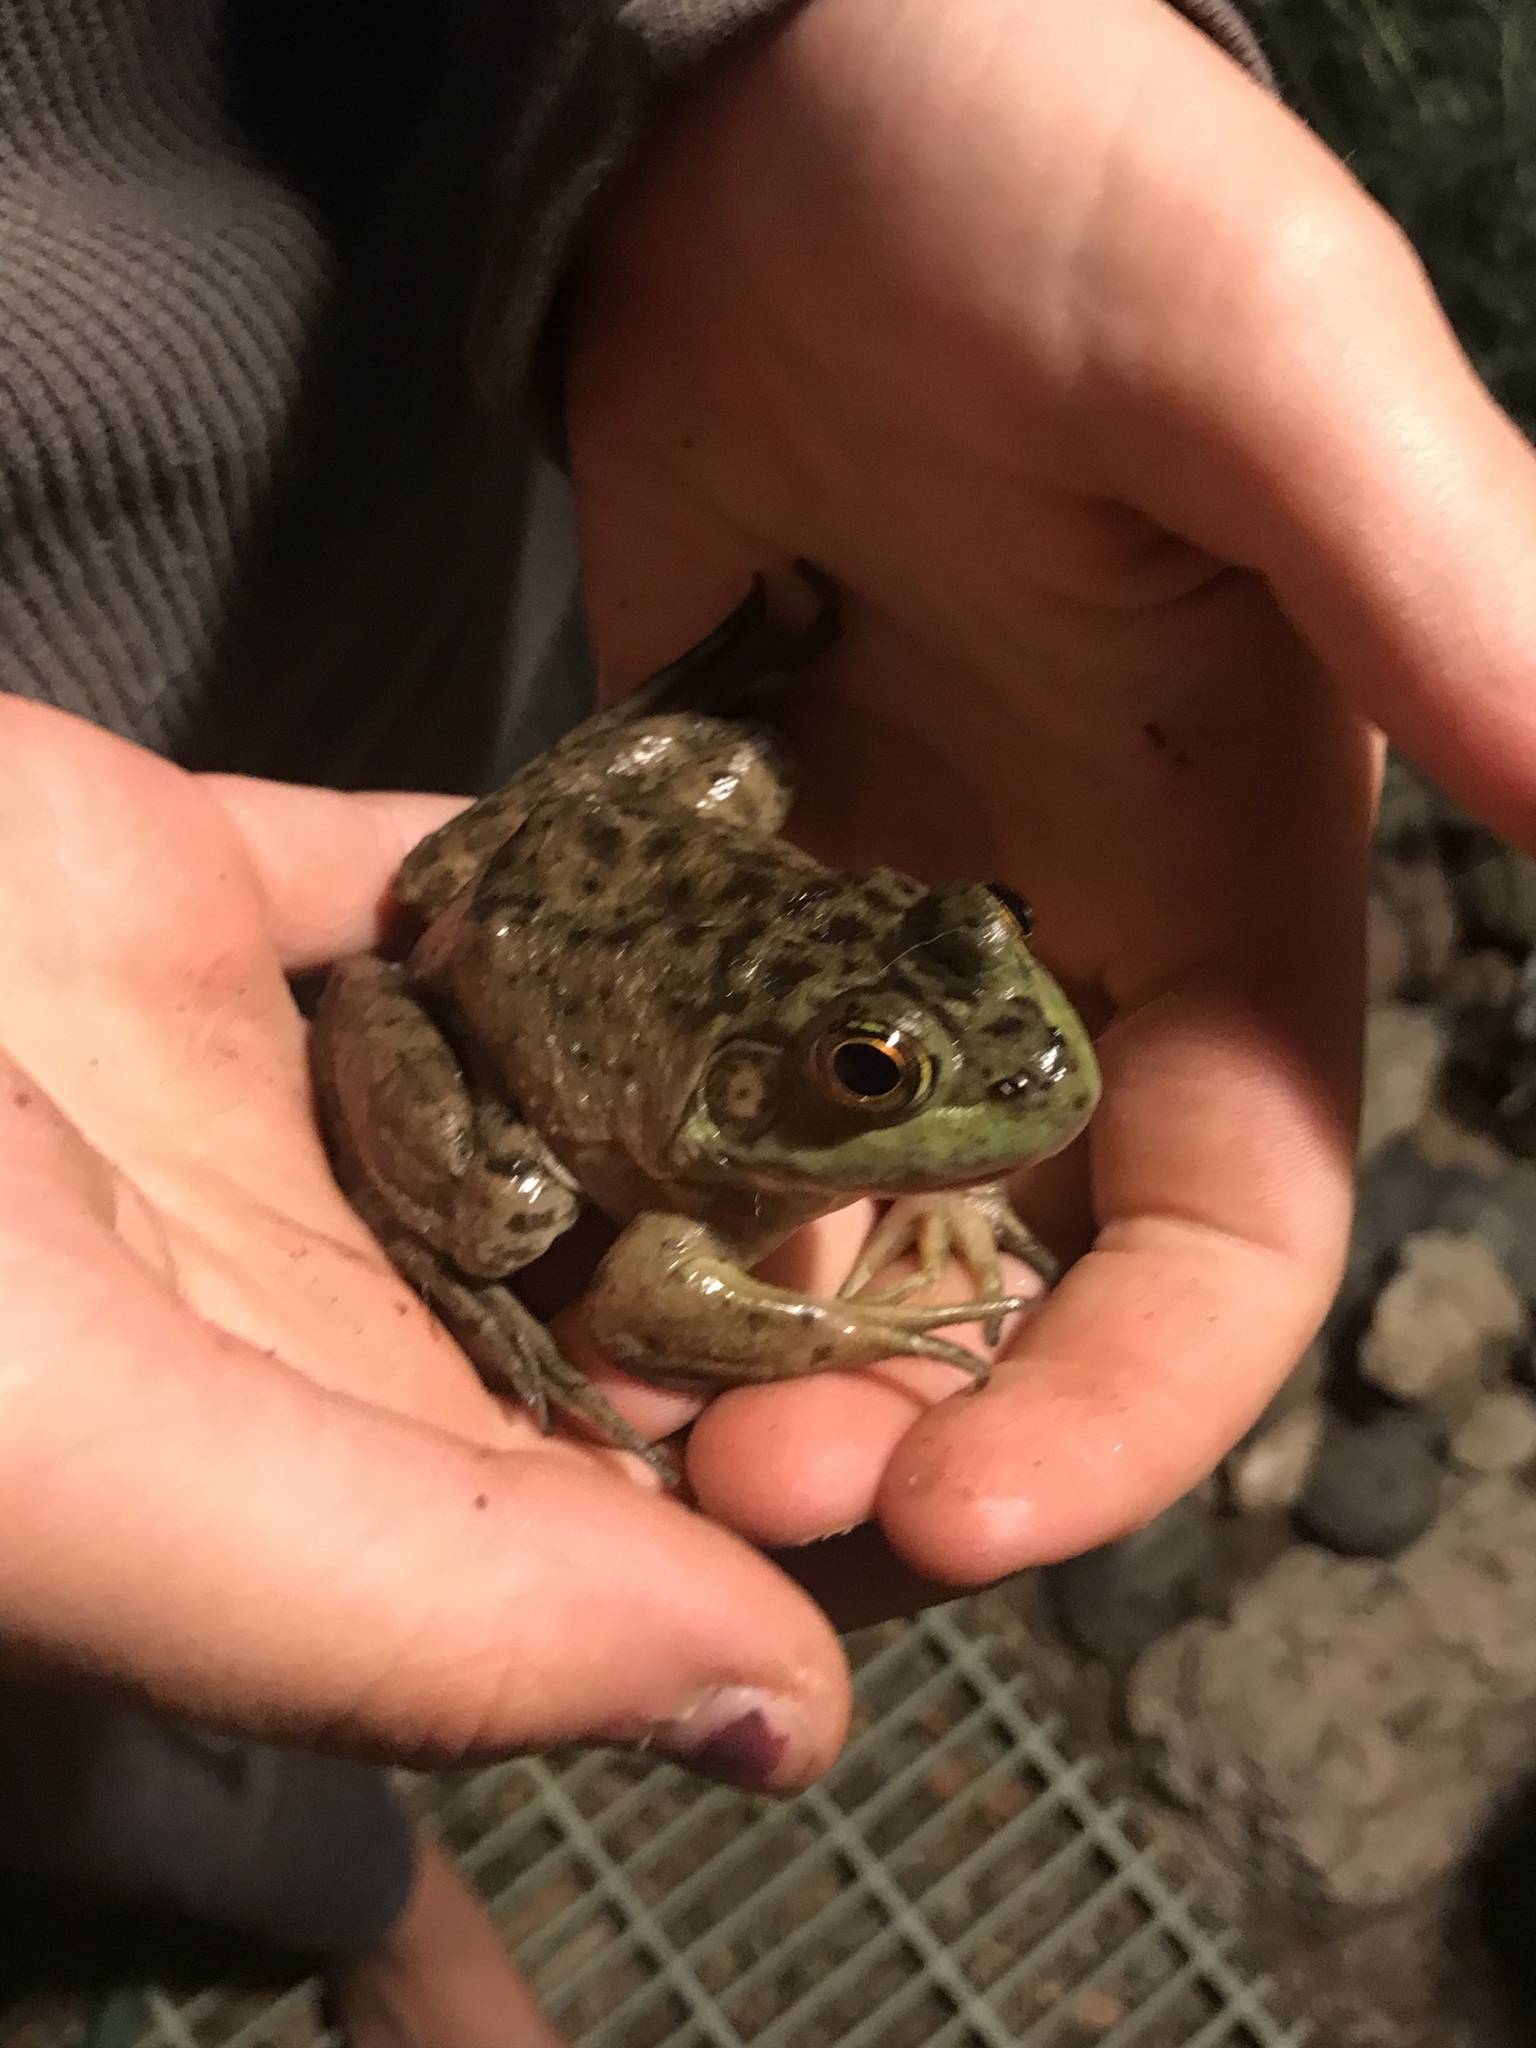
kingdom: Animalia
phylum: Chordata
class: Amphibia
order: Anura
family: Ranidae
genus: Lithobates
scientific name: Lithobates catesbeianus
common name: American bullfrog
